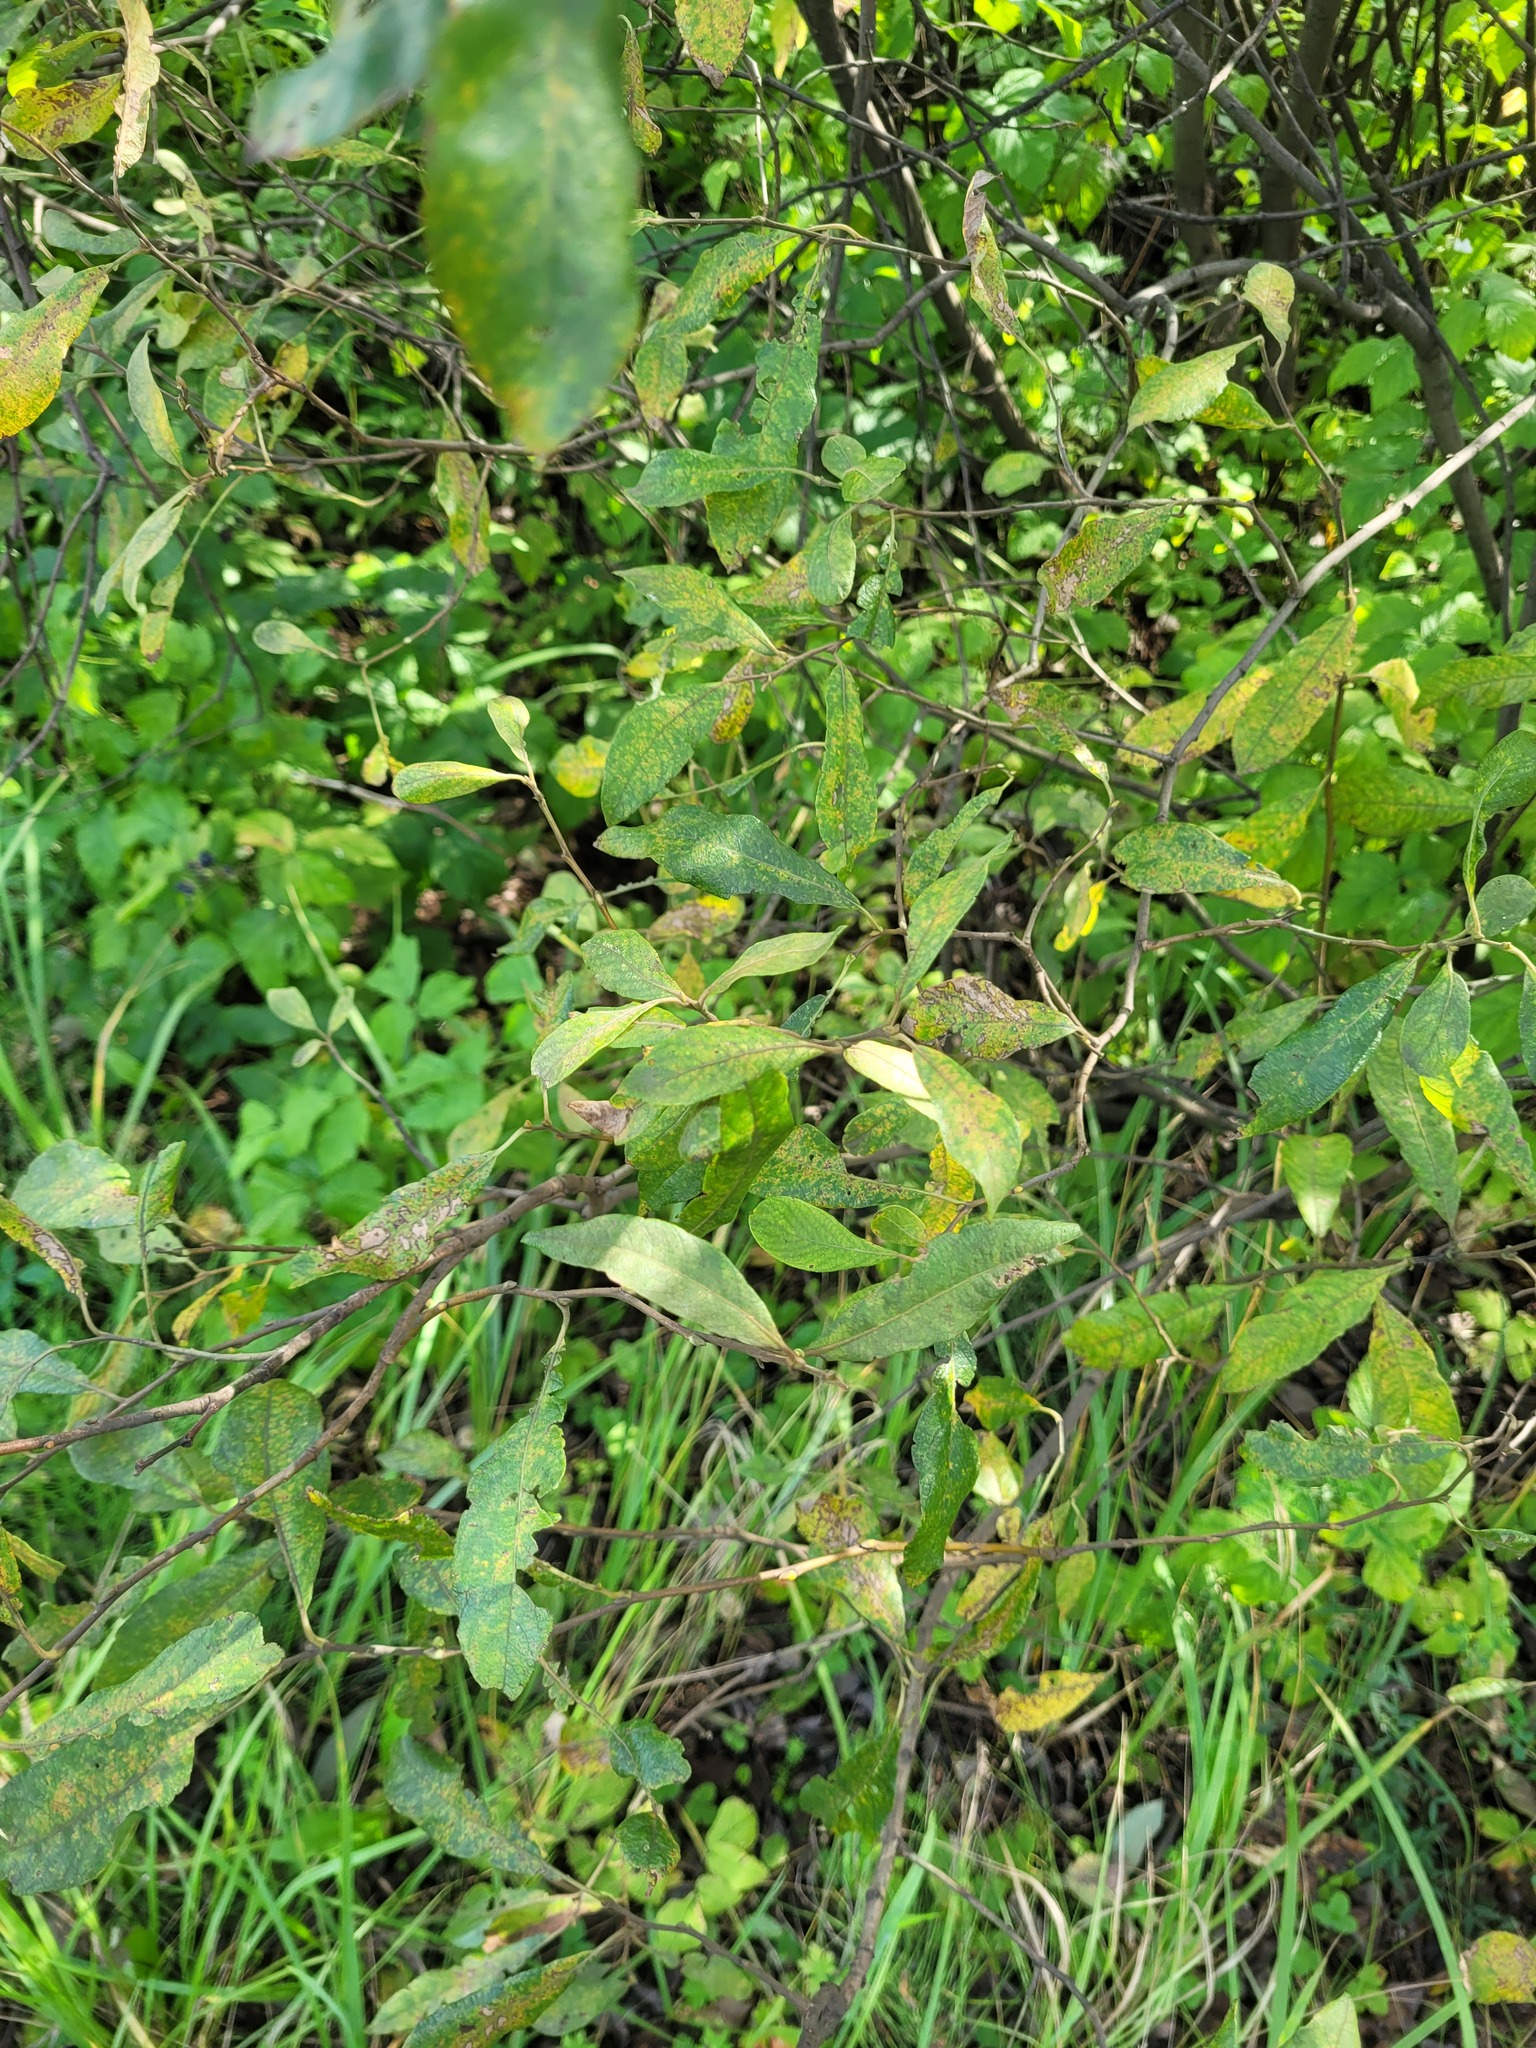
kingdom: Plantae
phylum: Tracheophyta
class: Magnoliopsida
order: Malpighiales
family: Salicaceae
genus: Salix
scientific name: Salix cinerea
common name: Common sallow
